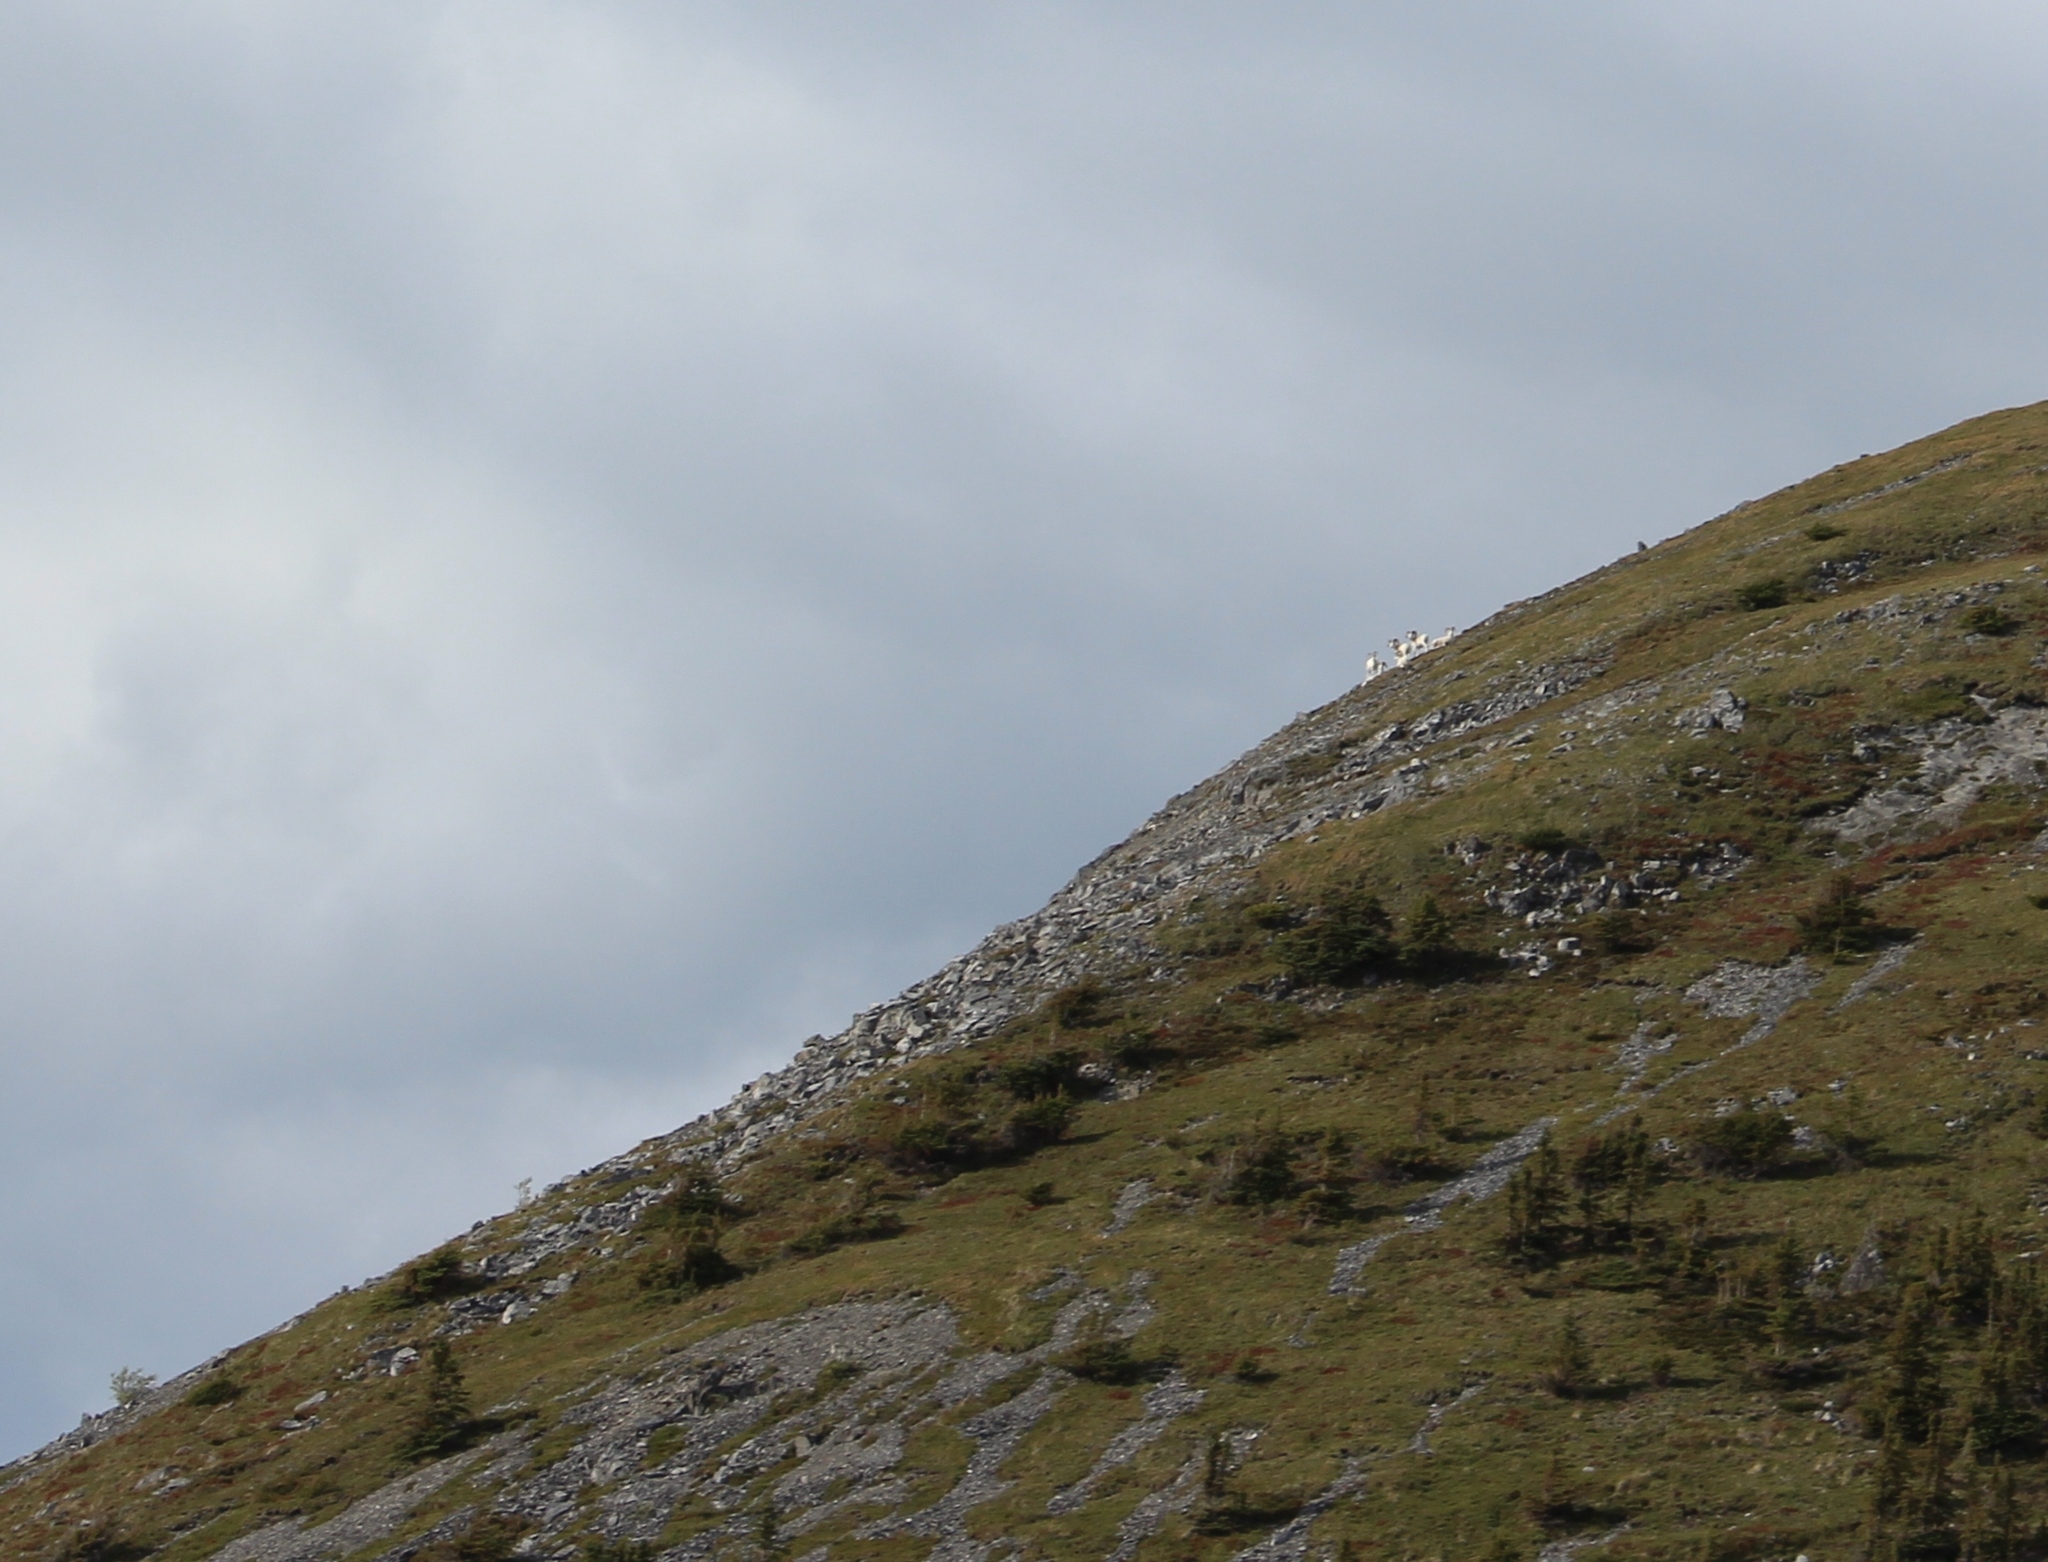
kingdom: Animalia
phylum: Chordata
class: Mammalia
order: Artiodactyla
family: Bovidae
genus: Ovis
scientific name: Ovis dalli
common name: Dall's sheep
